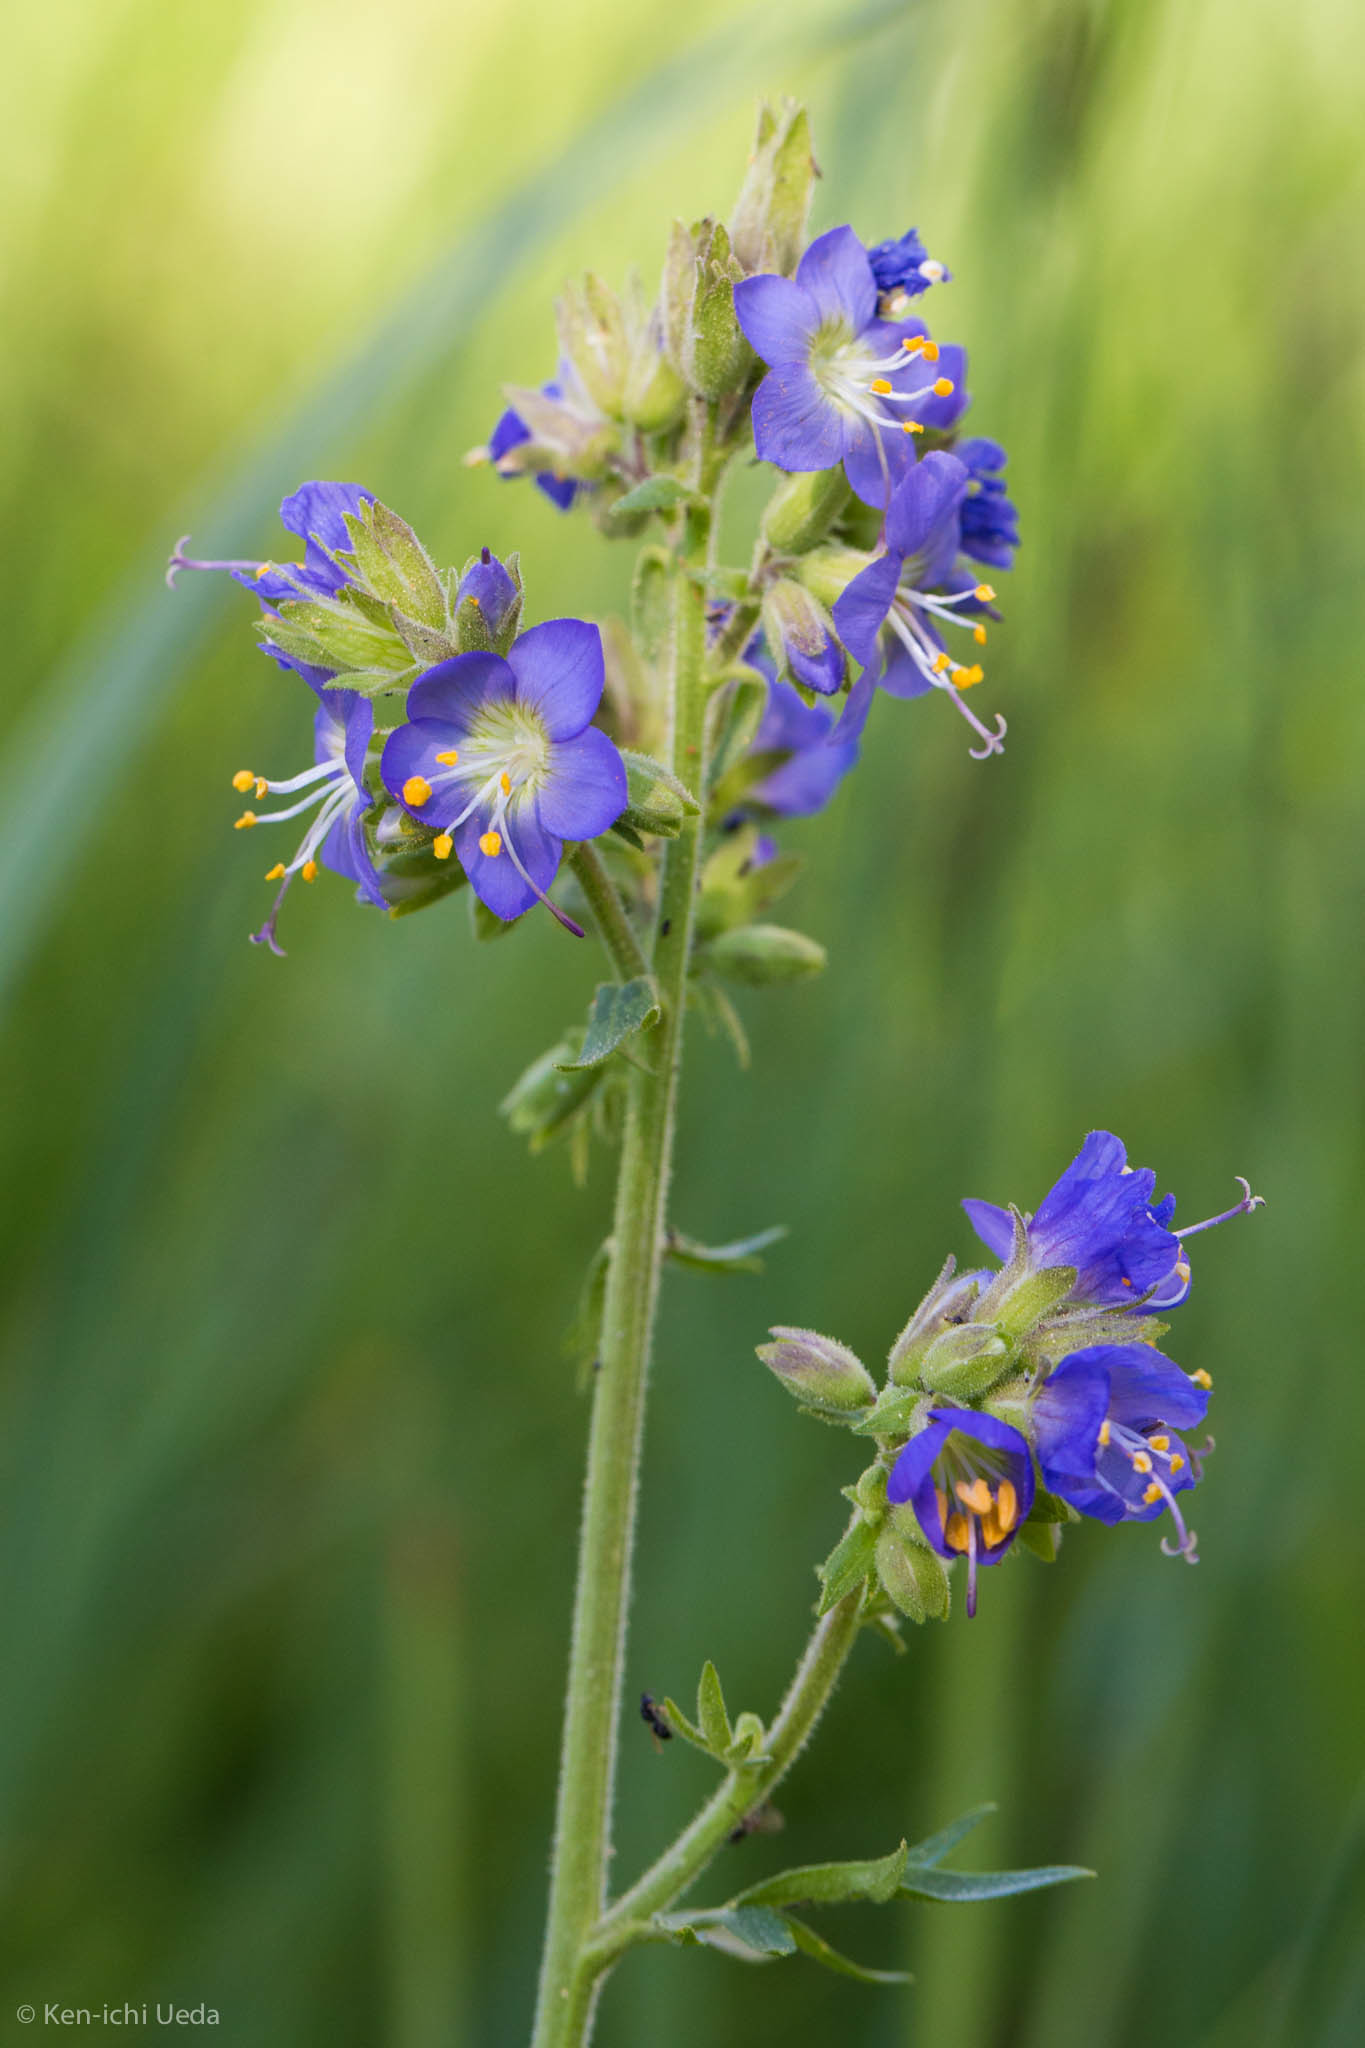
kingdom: Plantae
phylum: Tracheophyta
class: Magnoliopsida
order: Ericales
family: Polemoniaceae
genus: Polemonium
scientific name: Polemonium occidentale
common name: Western jacob's-ladder
